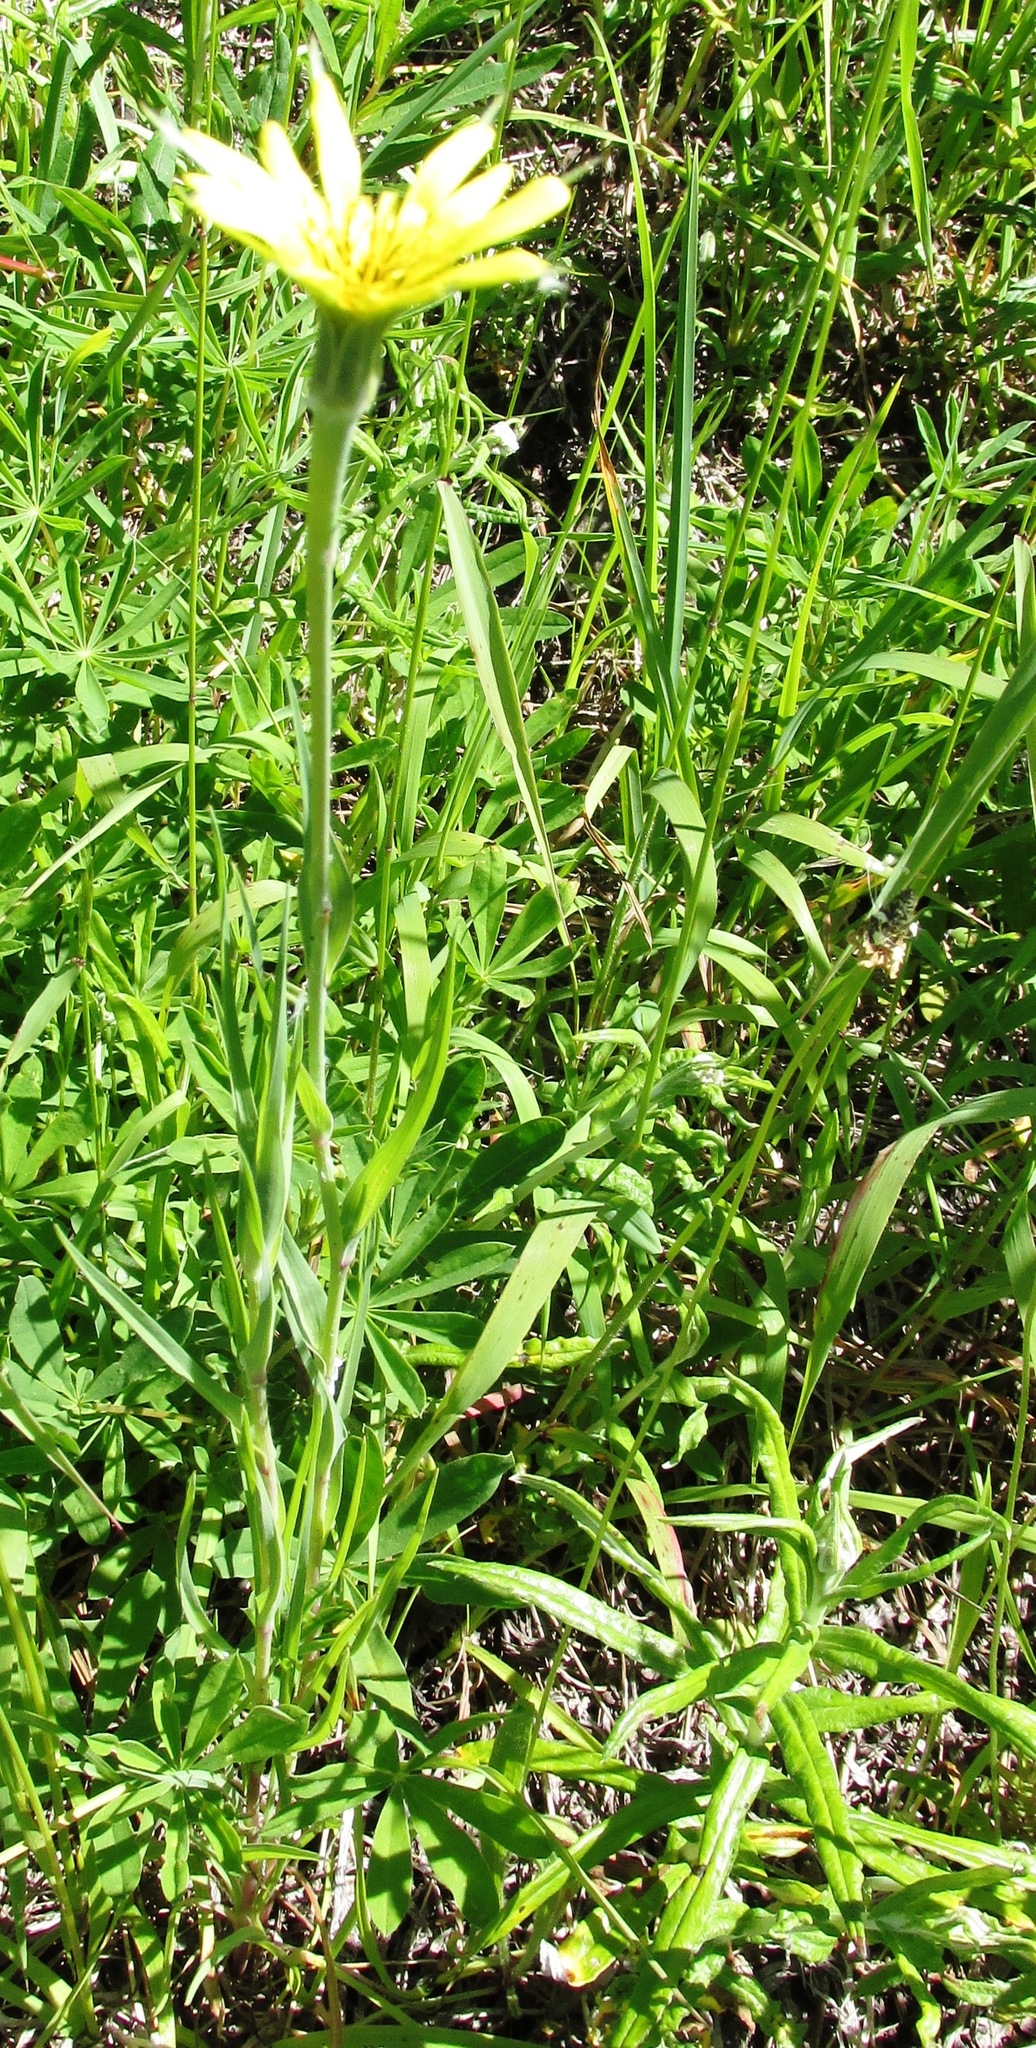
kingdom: Plantae
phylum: Tracheophyta
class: Magnoliopsida
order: Asterales
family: Asteraceae
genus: Tragopogon
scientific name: Tragopogon dubius
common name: Yellow salsify
